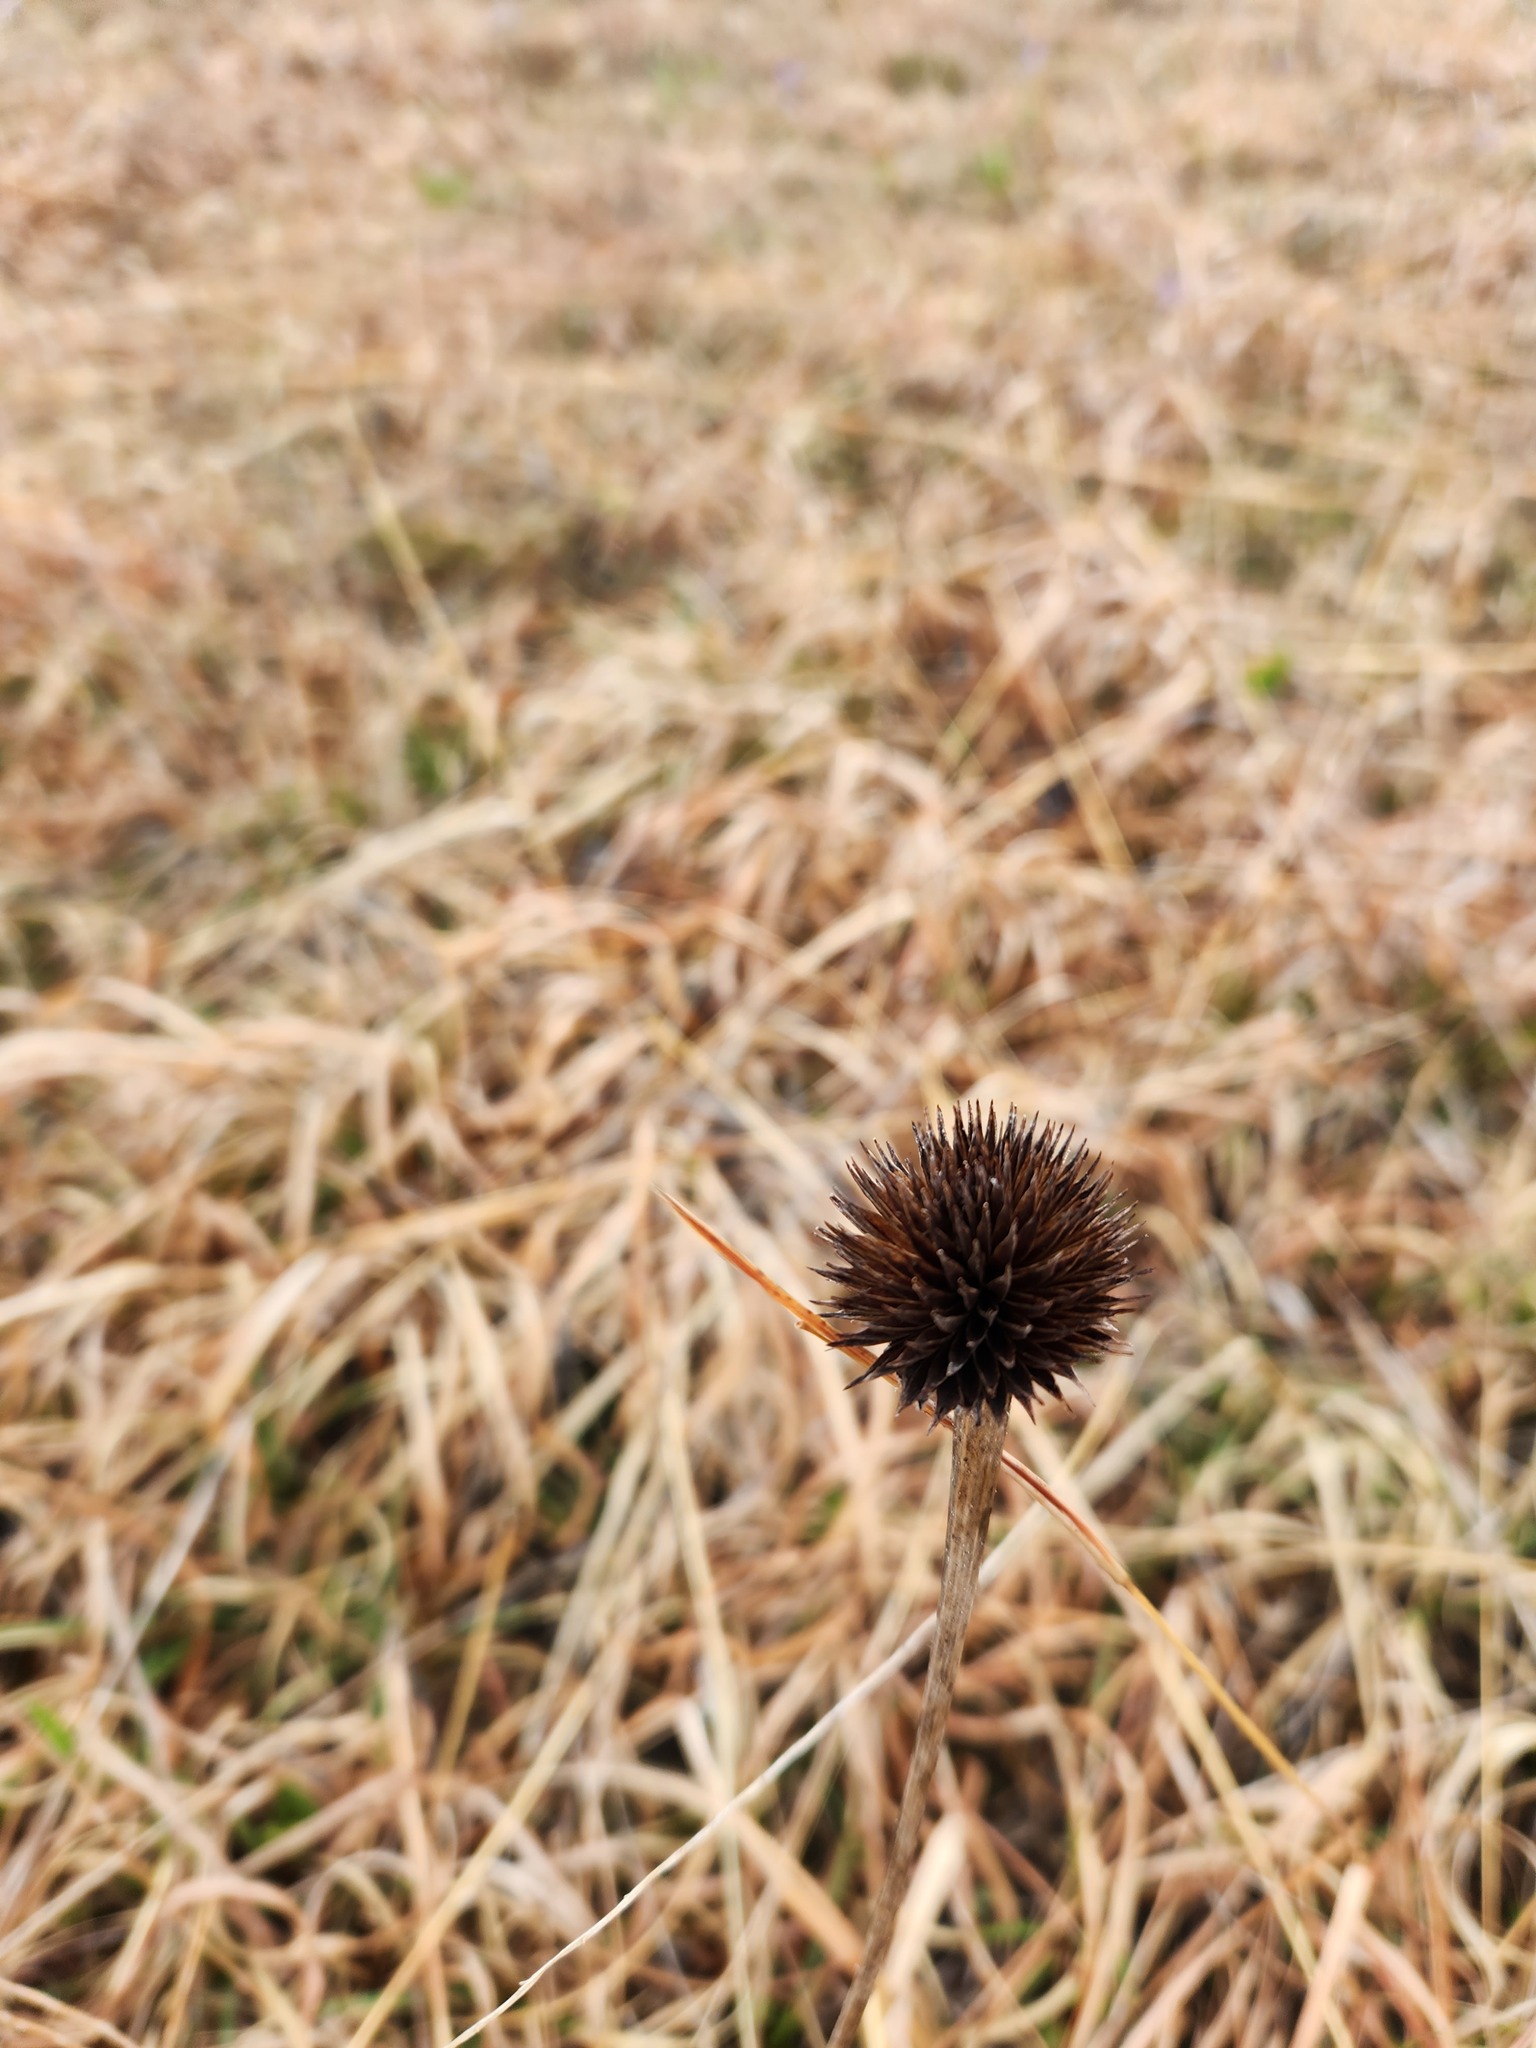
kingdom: Plantae
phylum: Tracheophyta
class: Magnoliopsida
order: Asterales
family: Asteraceae
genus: Echinacea
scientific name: Echinacea pallida
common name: Pale echinacea
